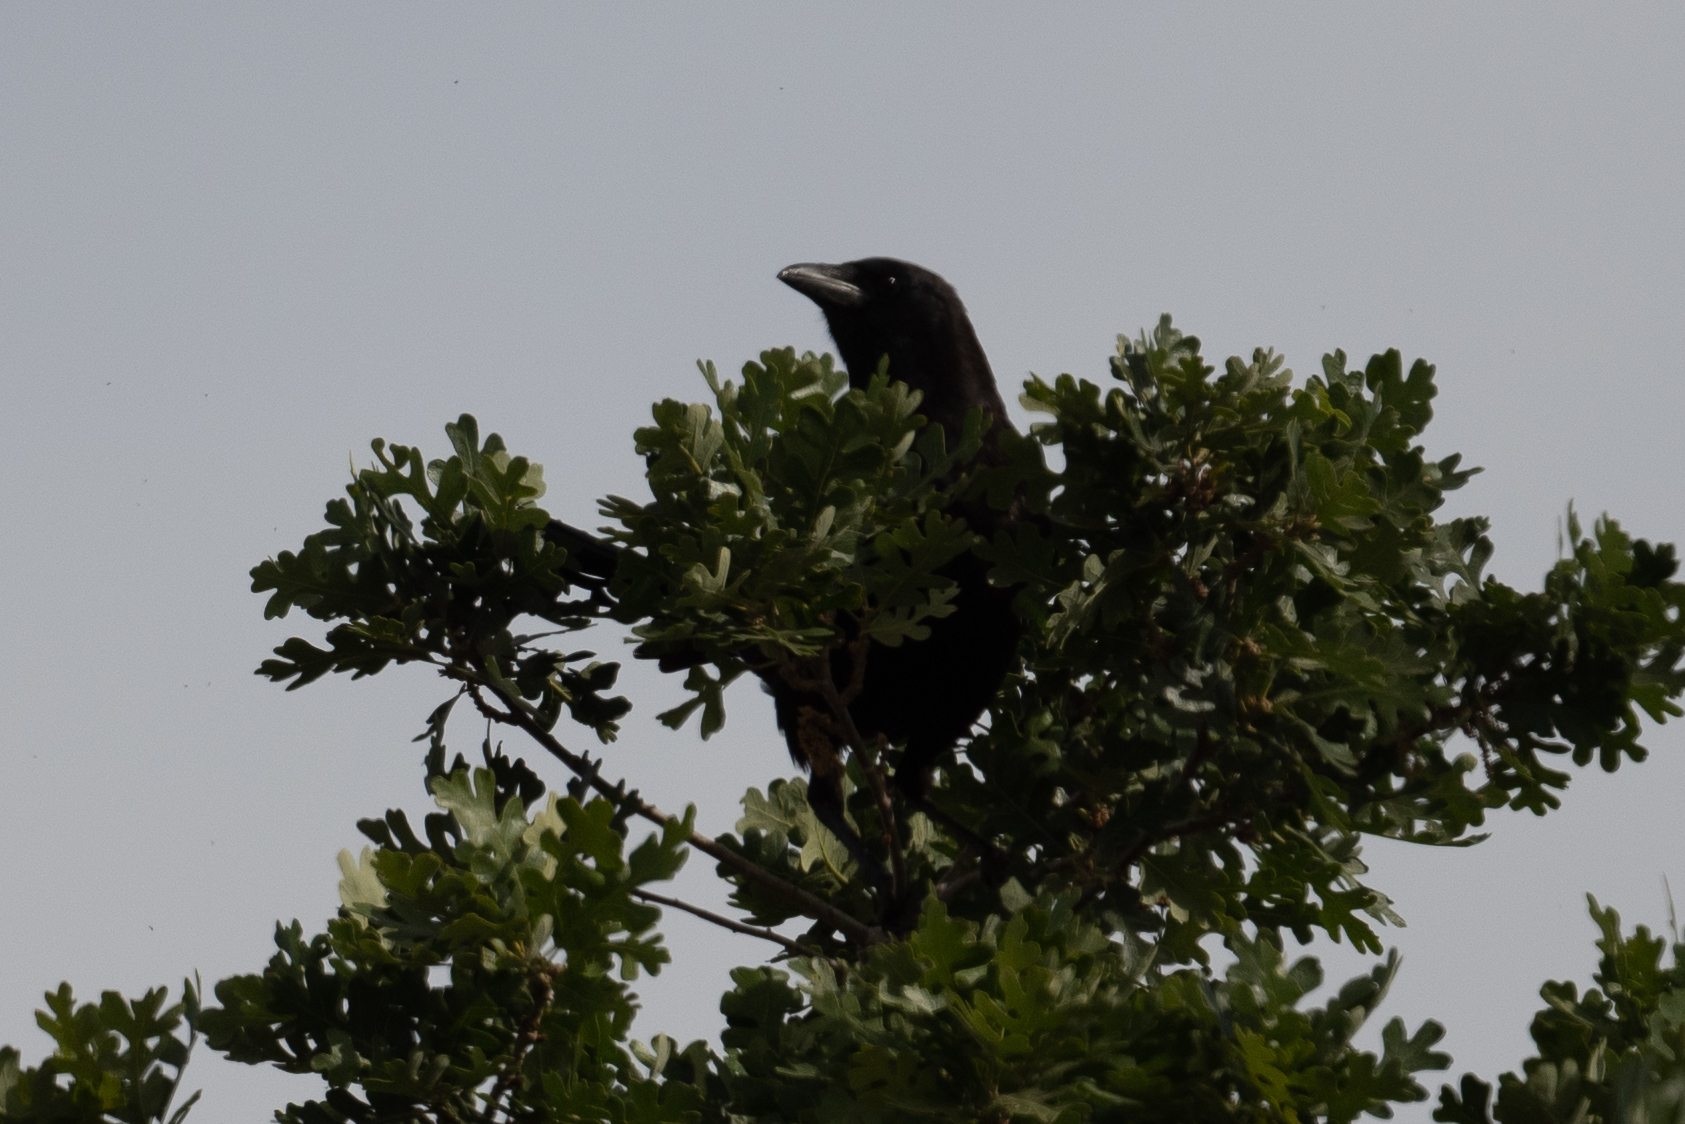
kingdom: Animalia
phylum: Chordata
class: Aves
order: Passeriformes
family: Corvidae
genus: Corvus
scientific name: Corvus brachyrhynchos
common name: American crow
